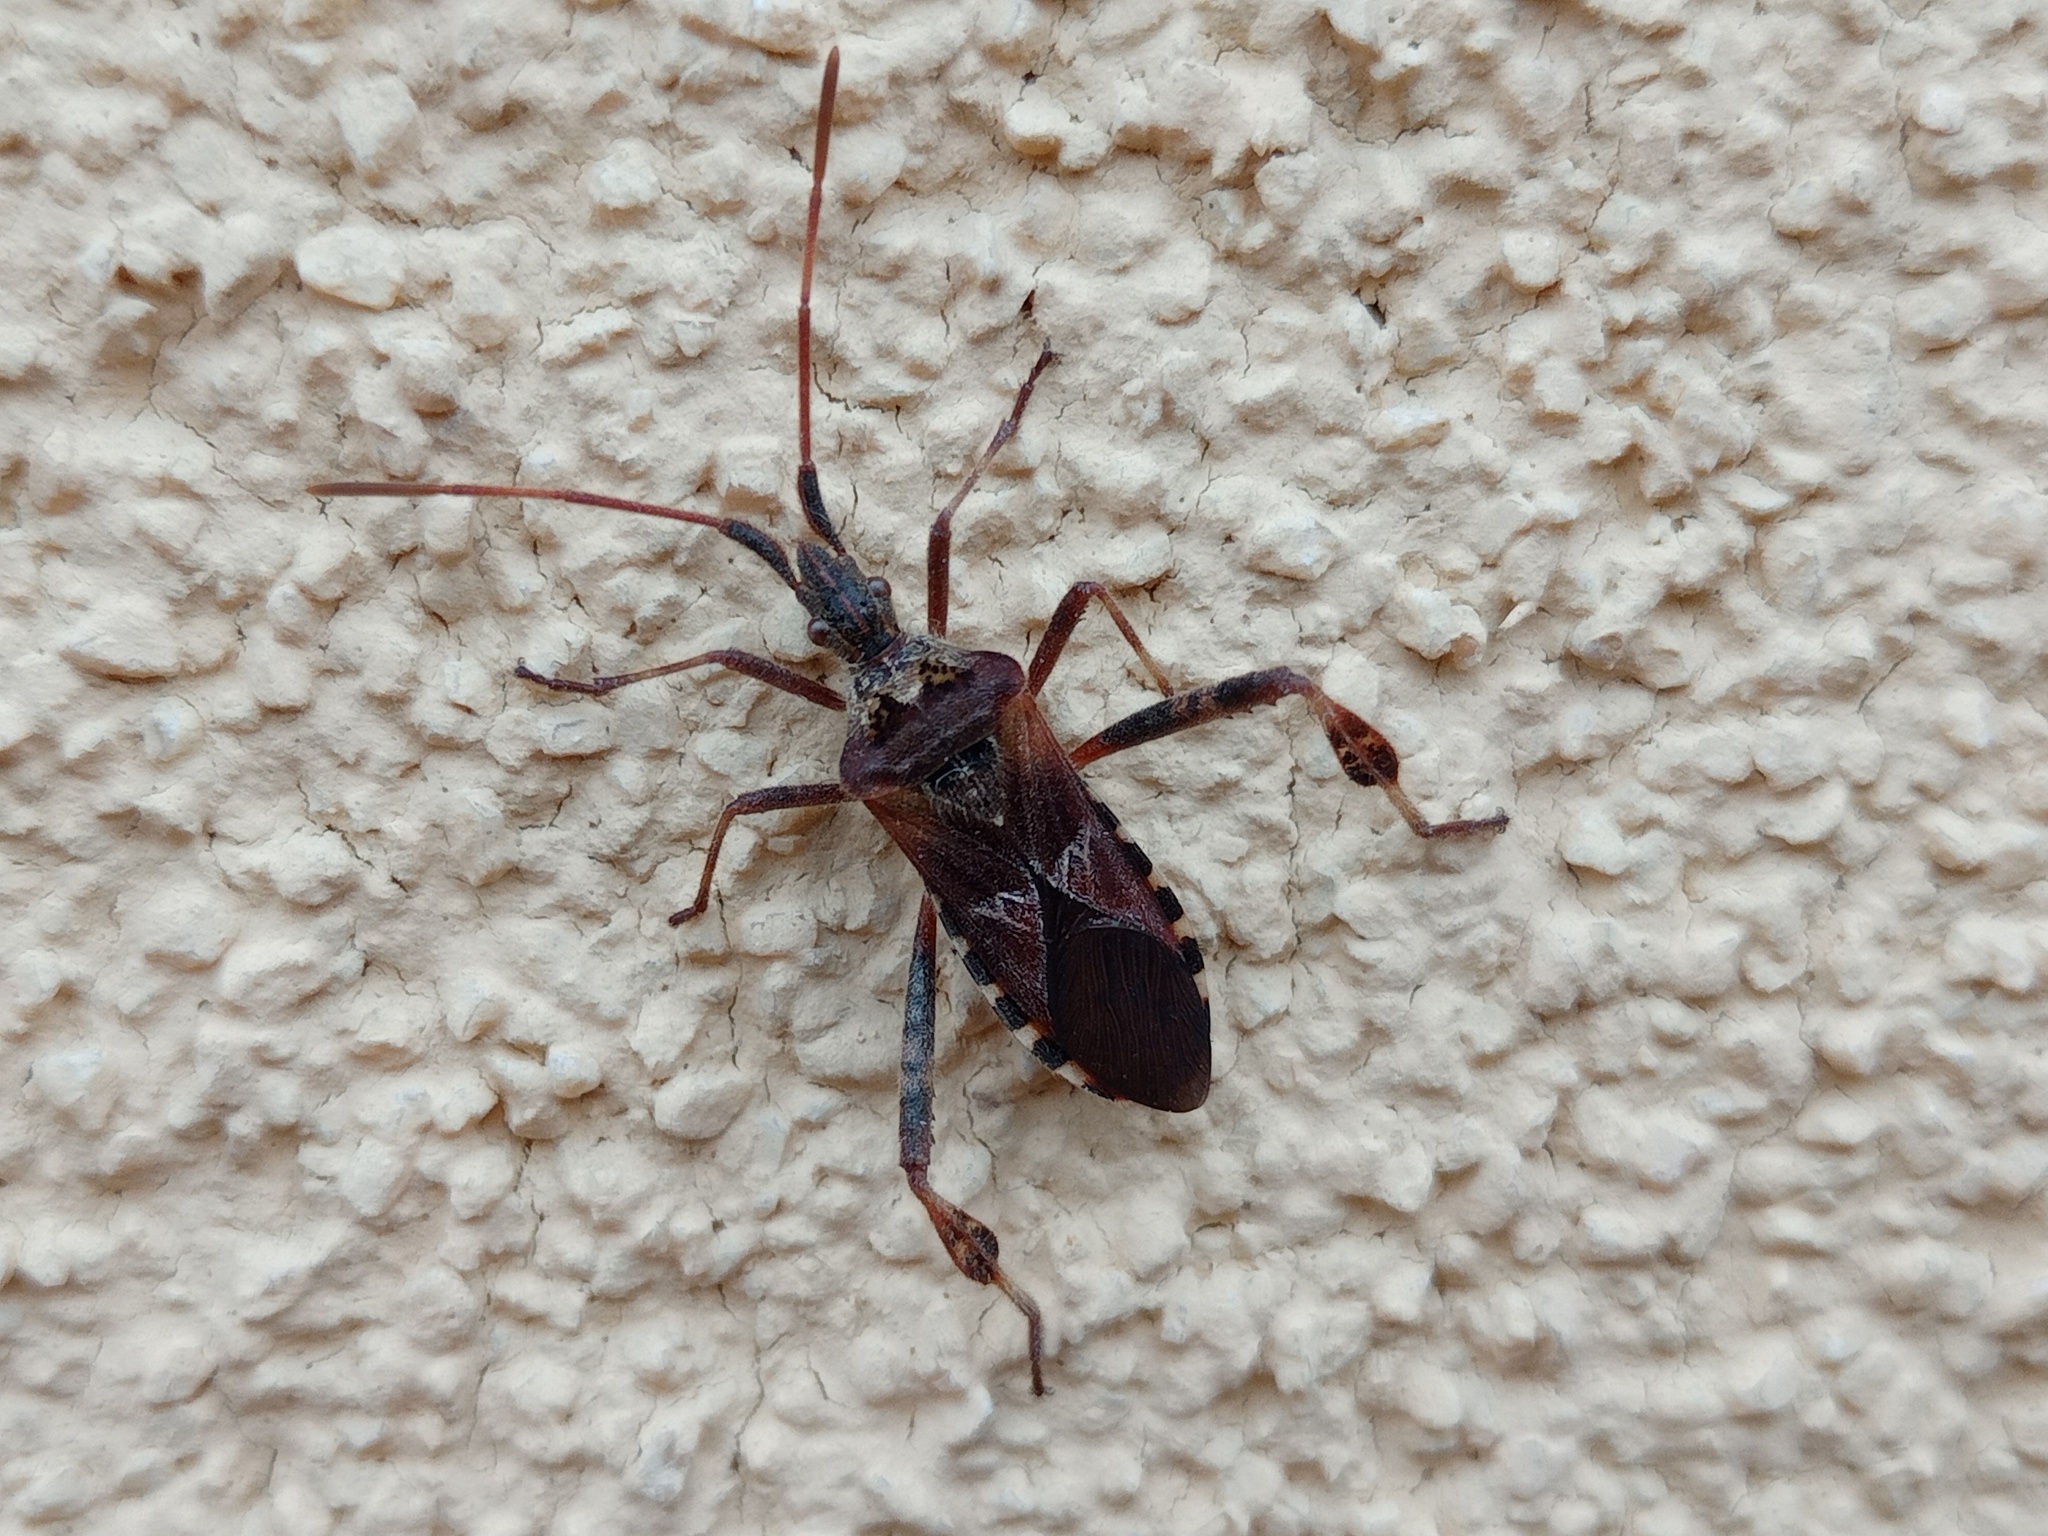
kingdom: Animalia
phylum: Arthropoda
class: Insecta
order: Hemiptera
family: Coreidae
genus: Leptoglossus
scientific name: Leptoglossus occidentalis
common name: Western conifer-seed bug
